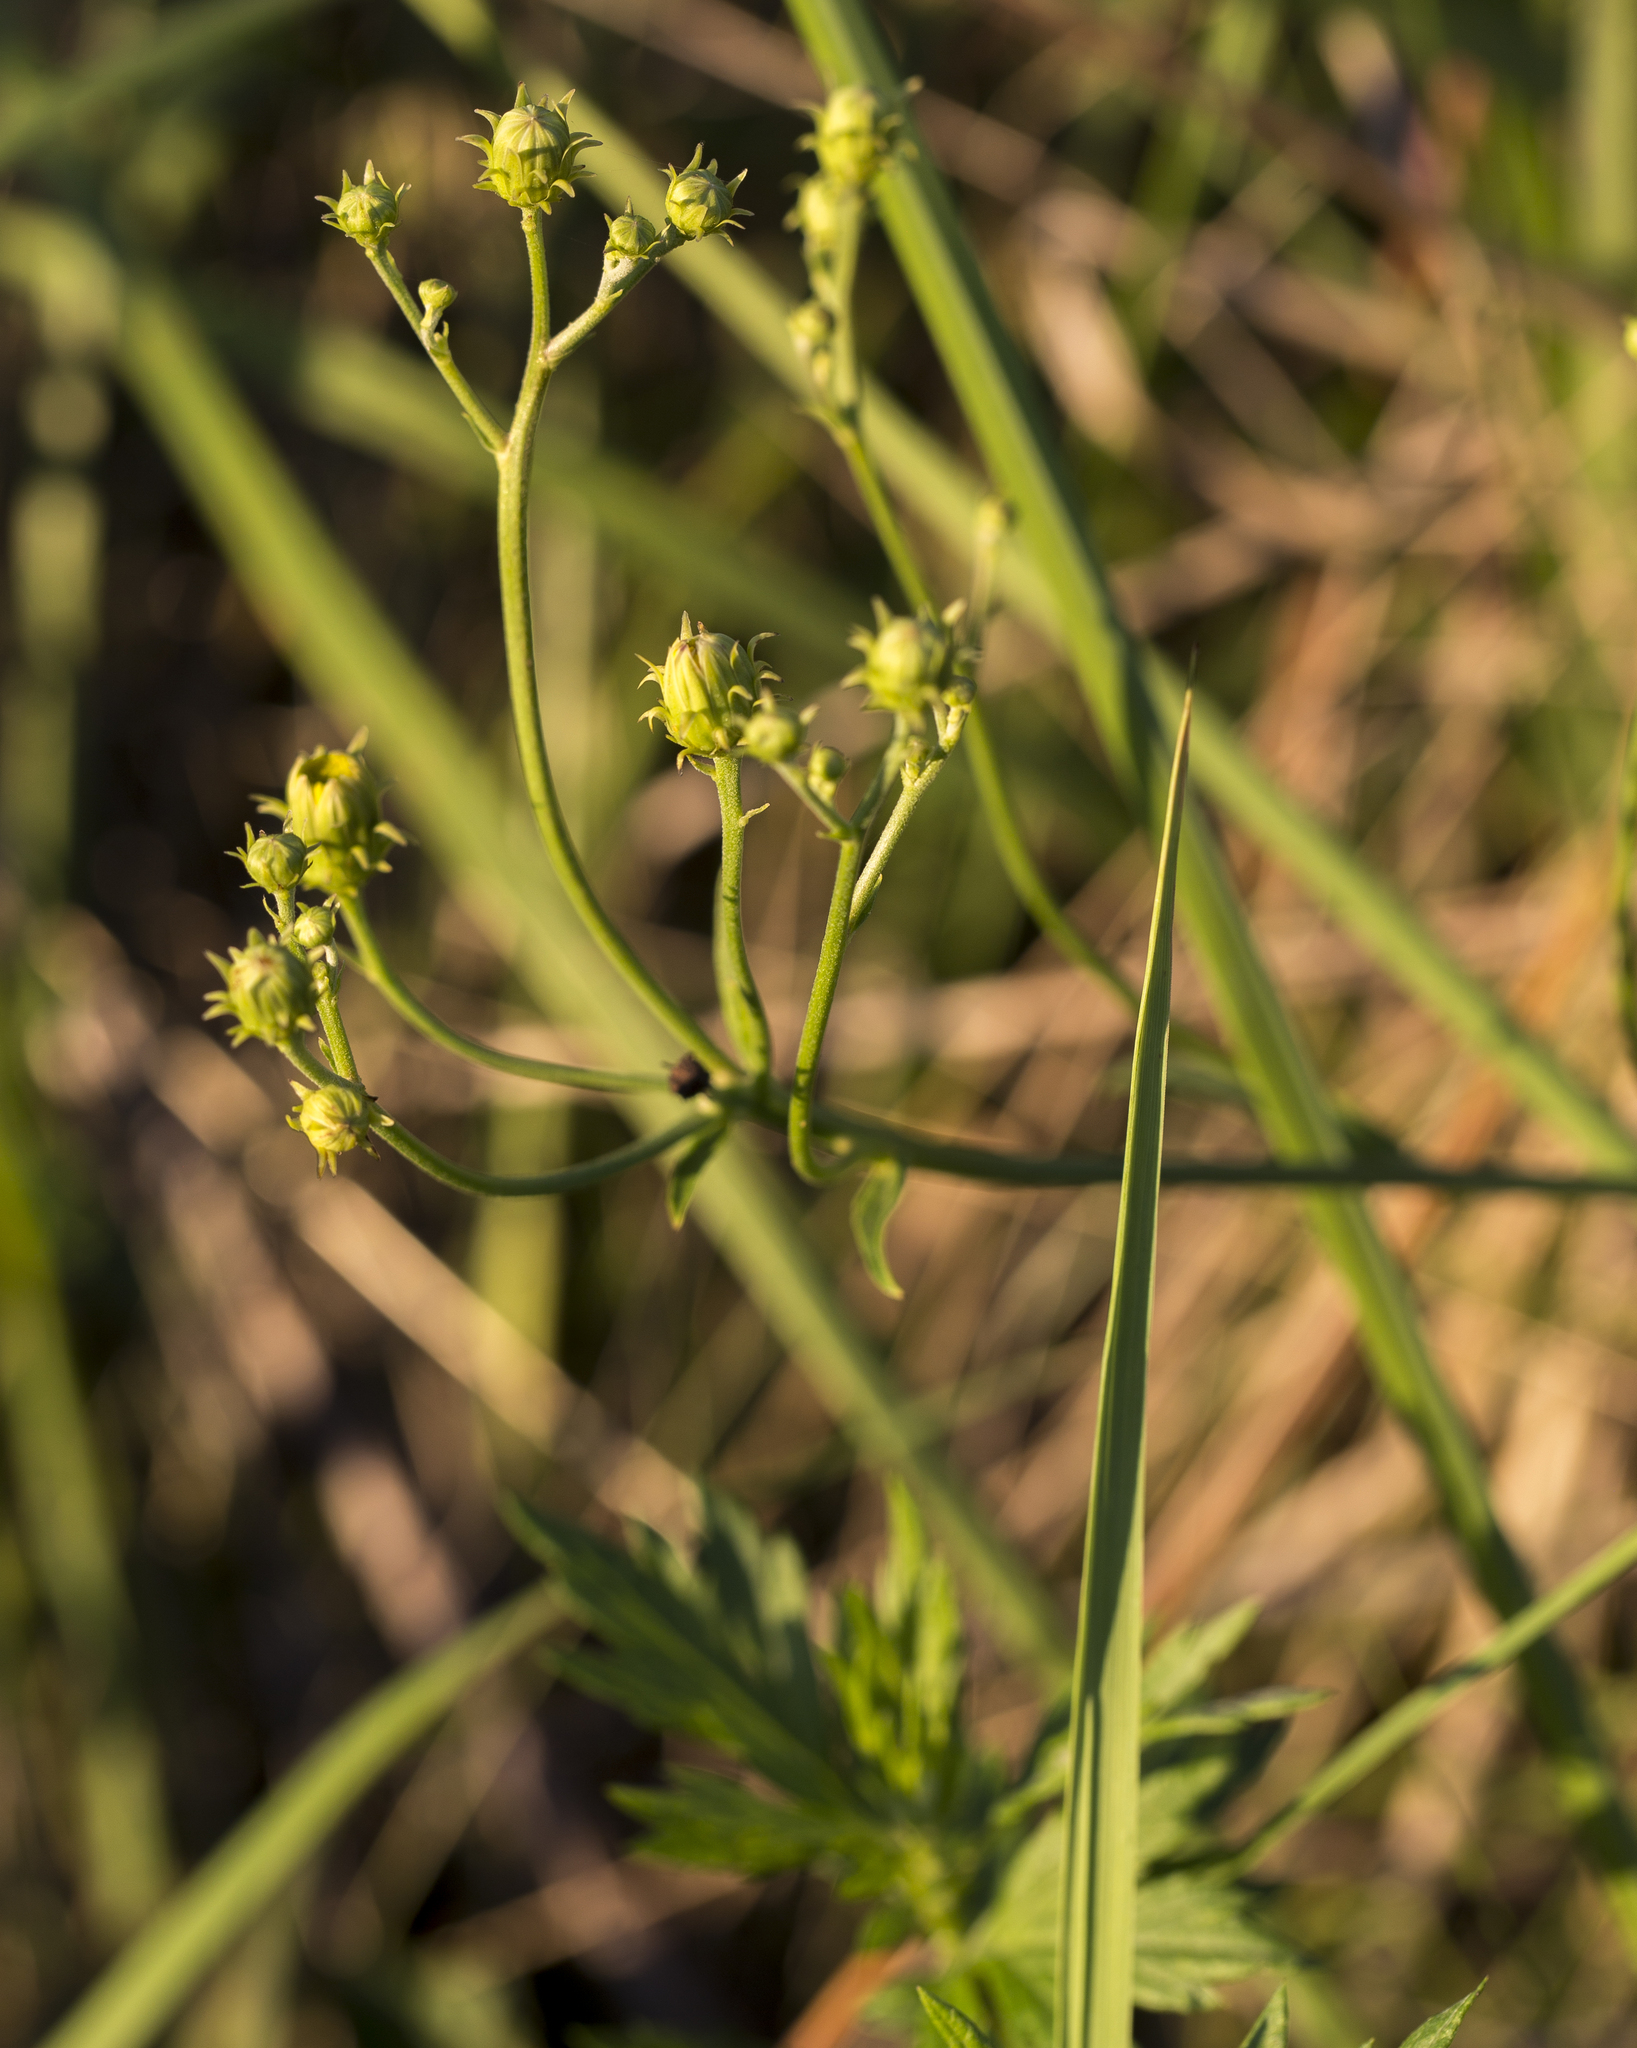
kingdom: Plantae
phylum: Tracheophyta
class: Magnoliopsida
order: Asterales
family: Asteraceae
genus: Hieracium
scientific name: Hieracium umbellatum
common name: Northern hawkweed
